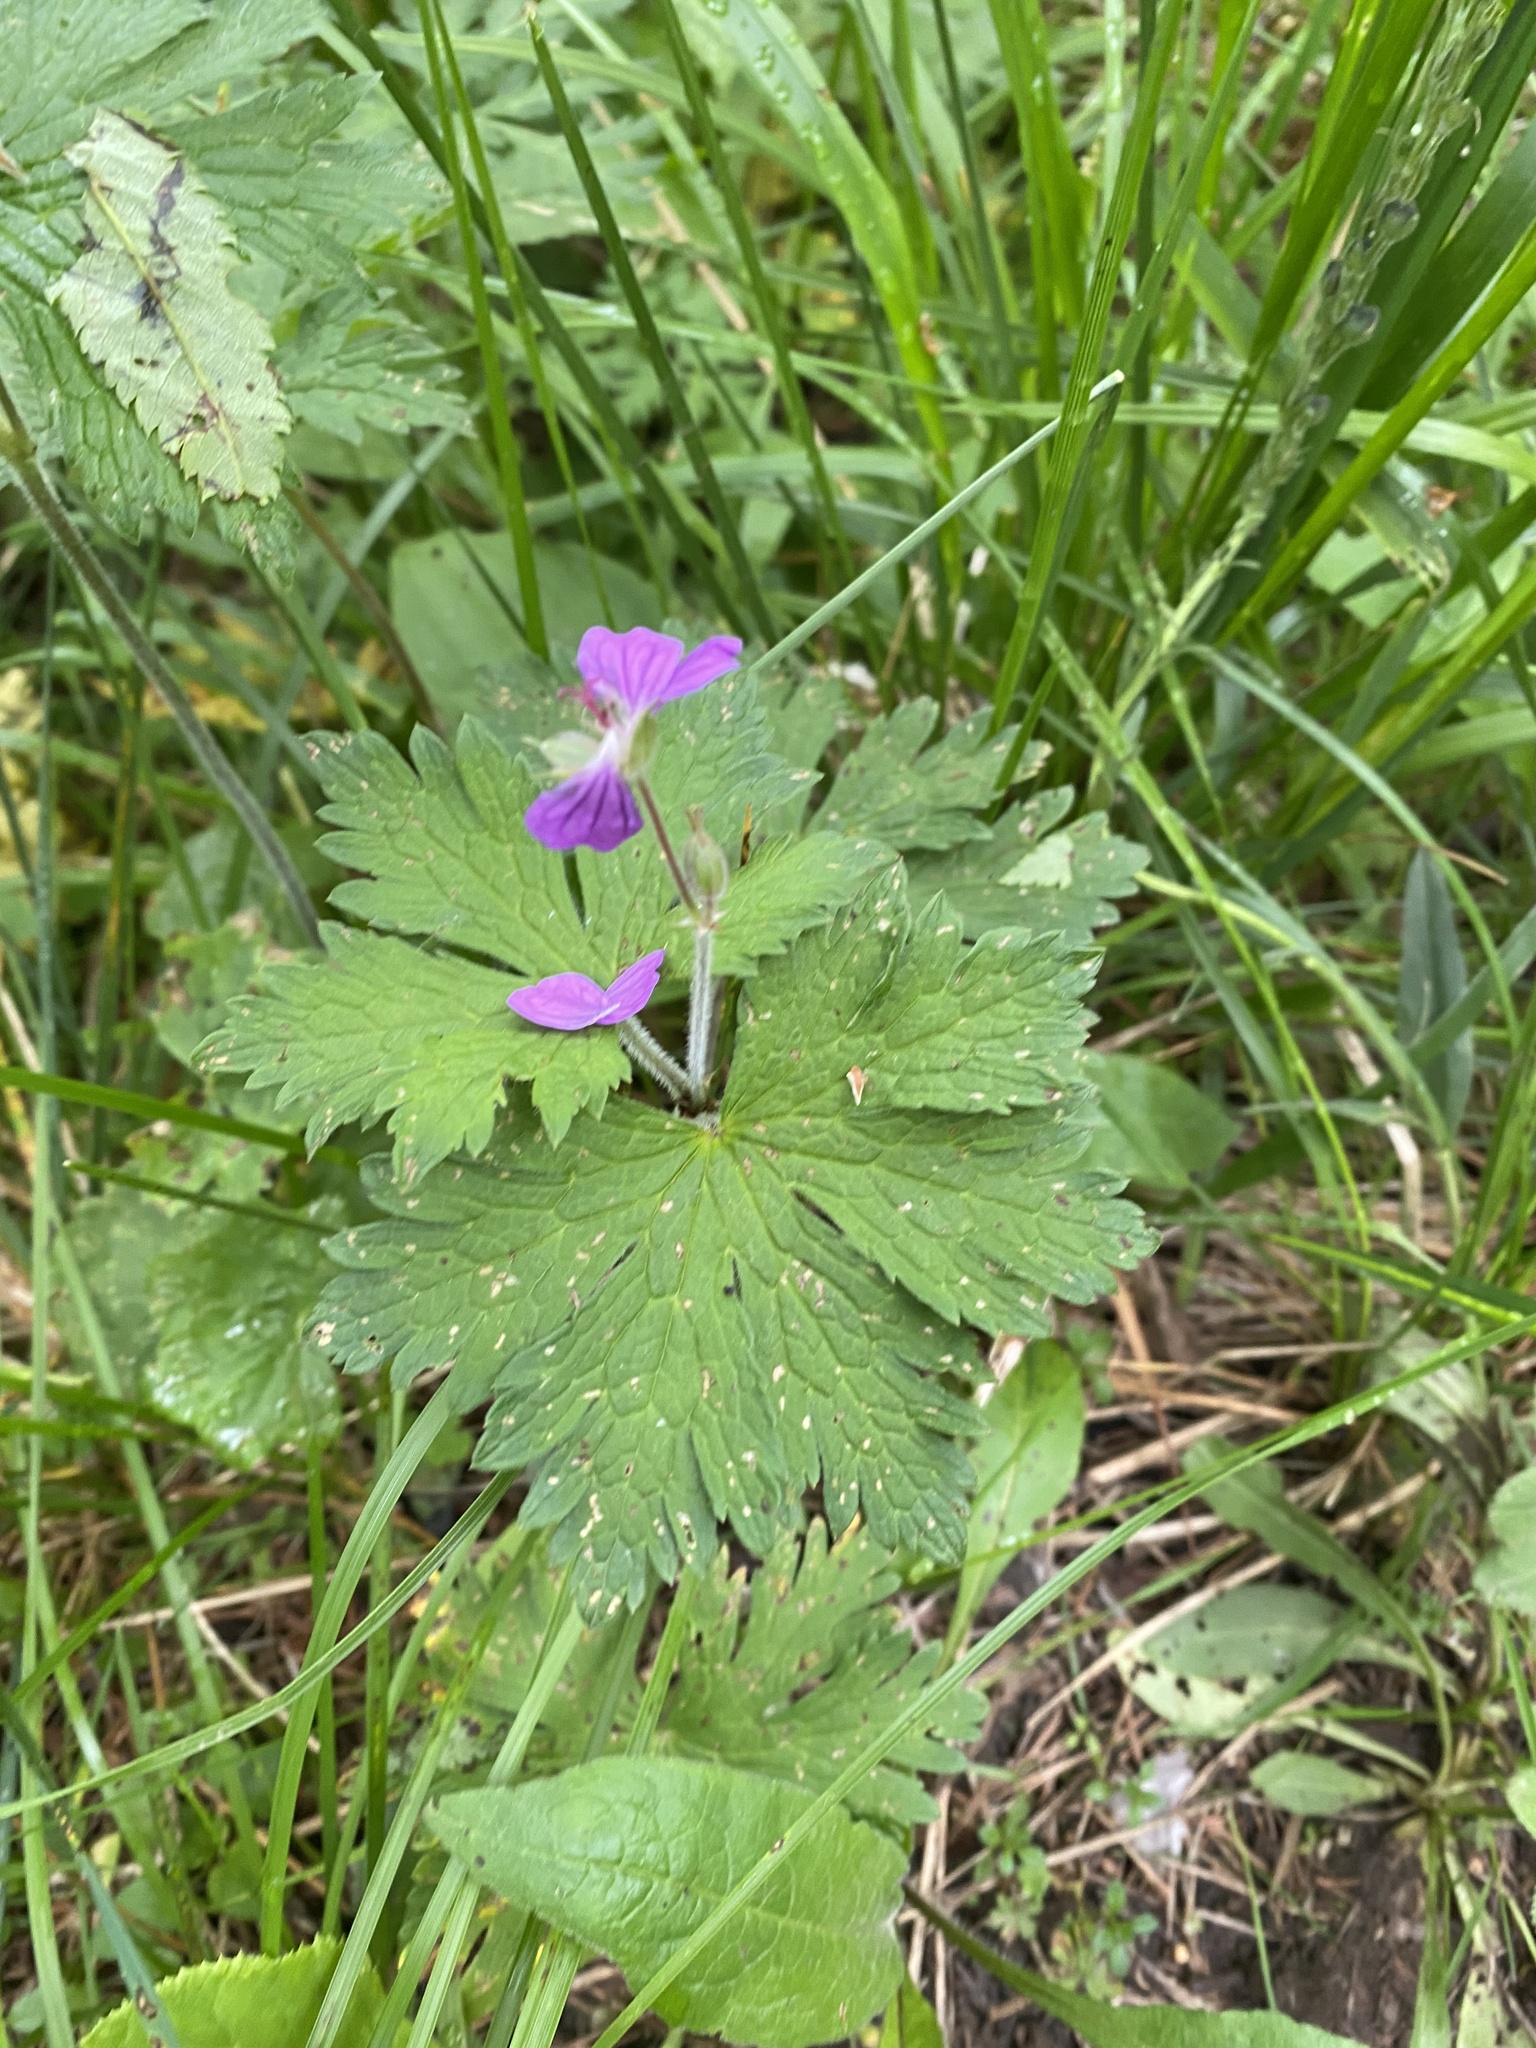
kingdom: Plantae
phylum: Tracheophyta
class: Magnoliopsida
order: Geraniales
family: Geraniaceae
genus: Geranium
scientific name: Geranium sylvaticum
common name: Wood crane's-bill
